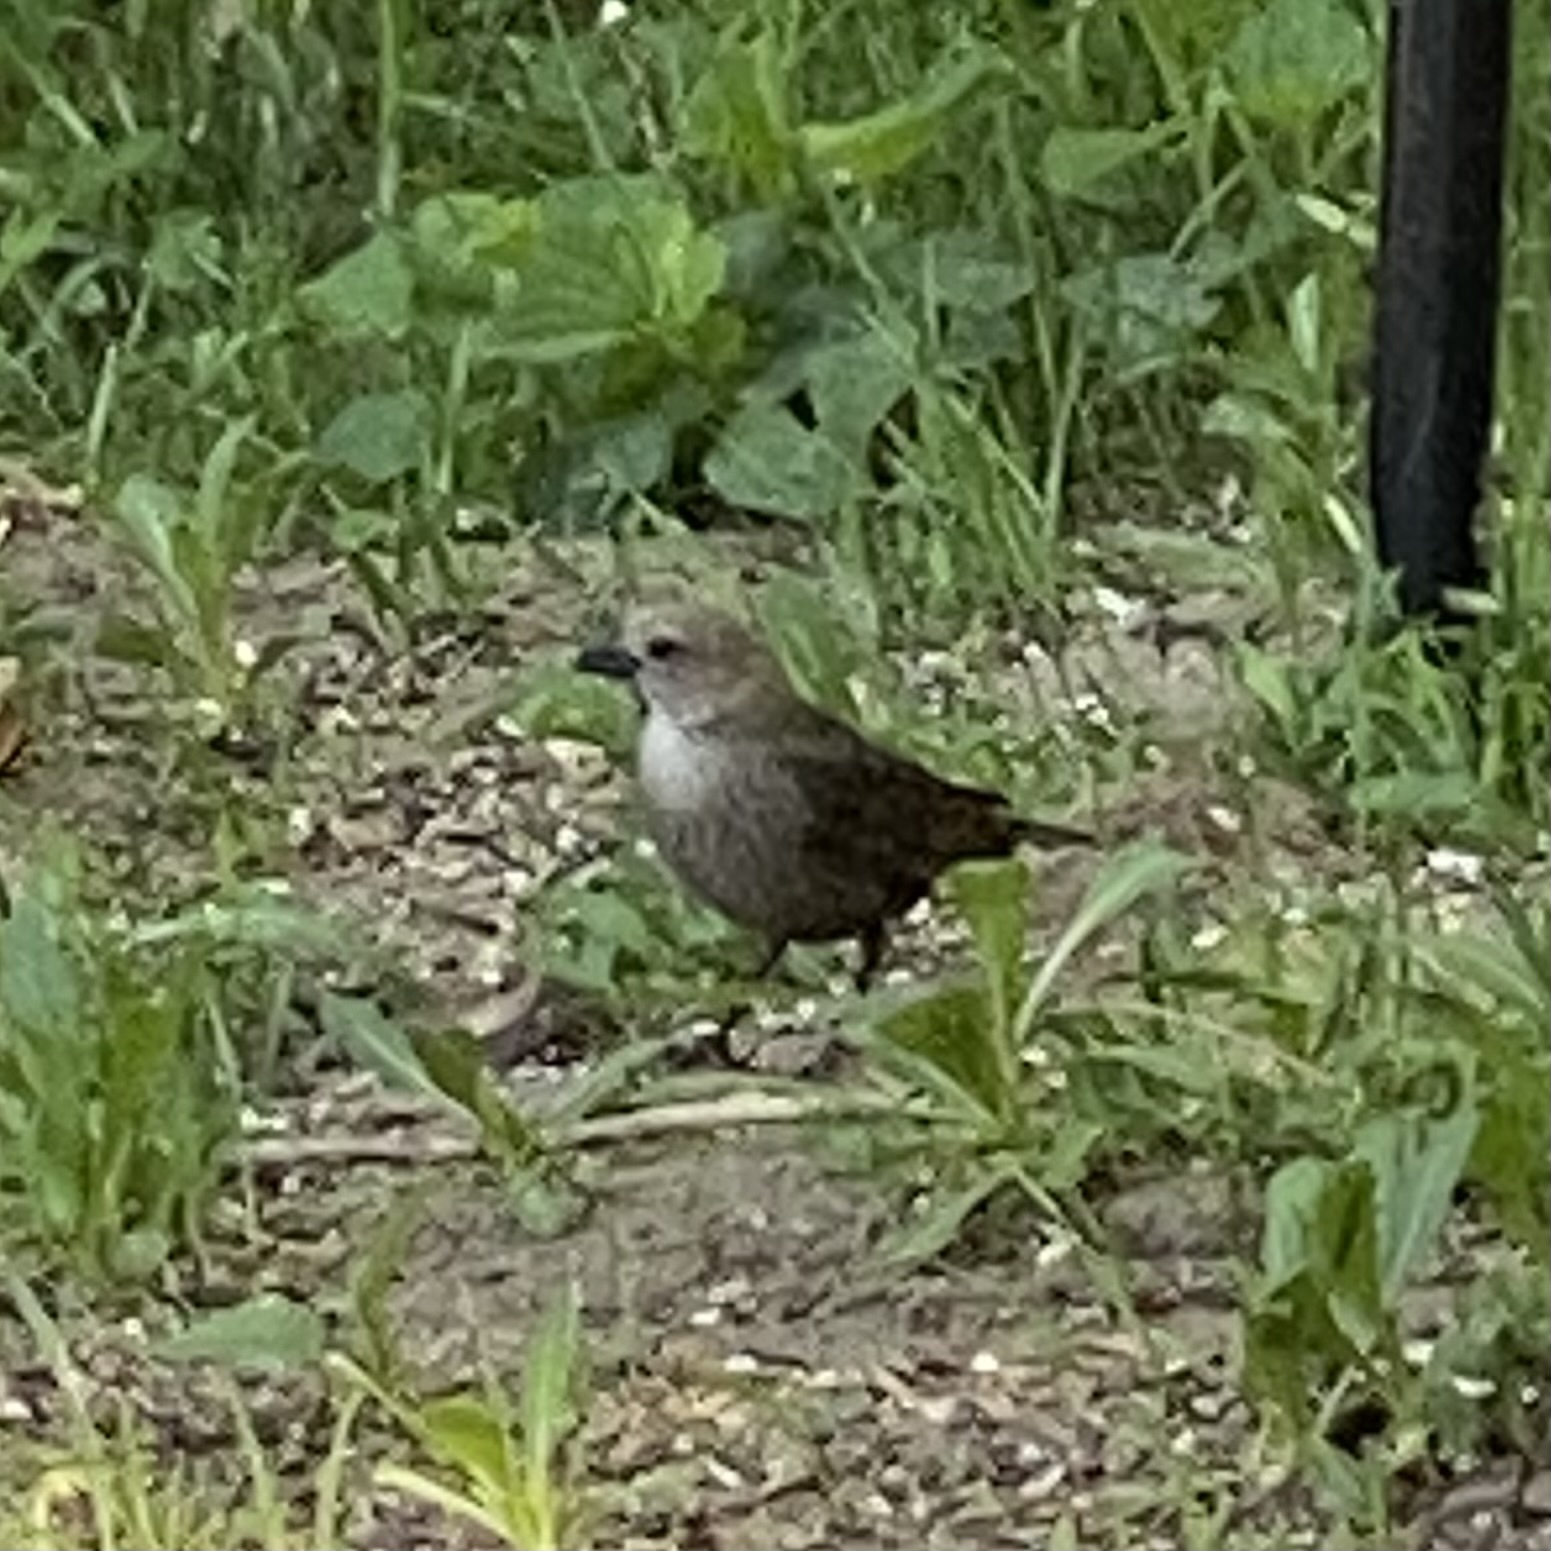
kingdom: Animalia
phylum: Chordata
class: Aves
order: Passeriformes
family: Icteridae
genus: Molothrus
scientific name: Molothrus ater
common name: Brown-headed cowbird
